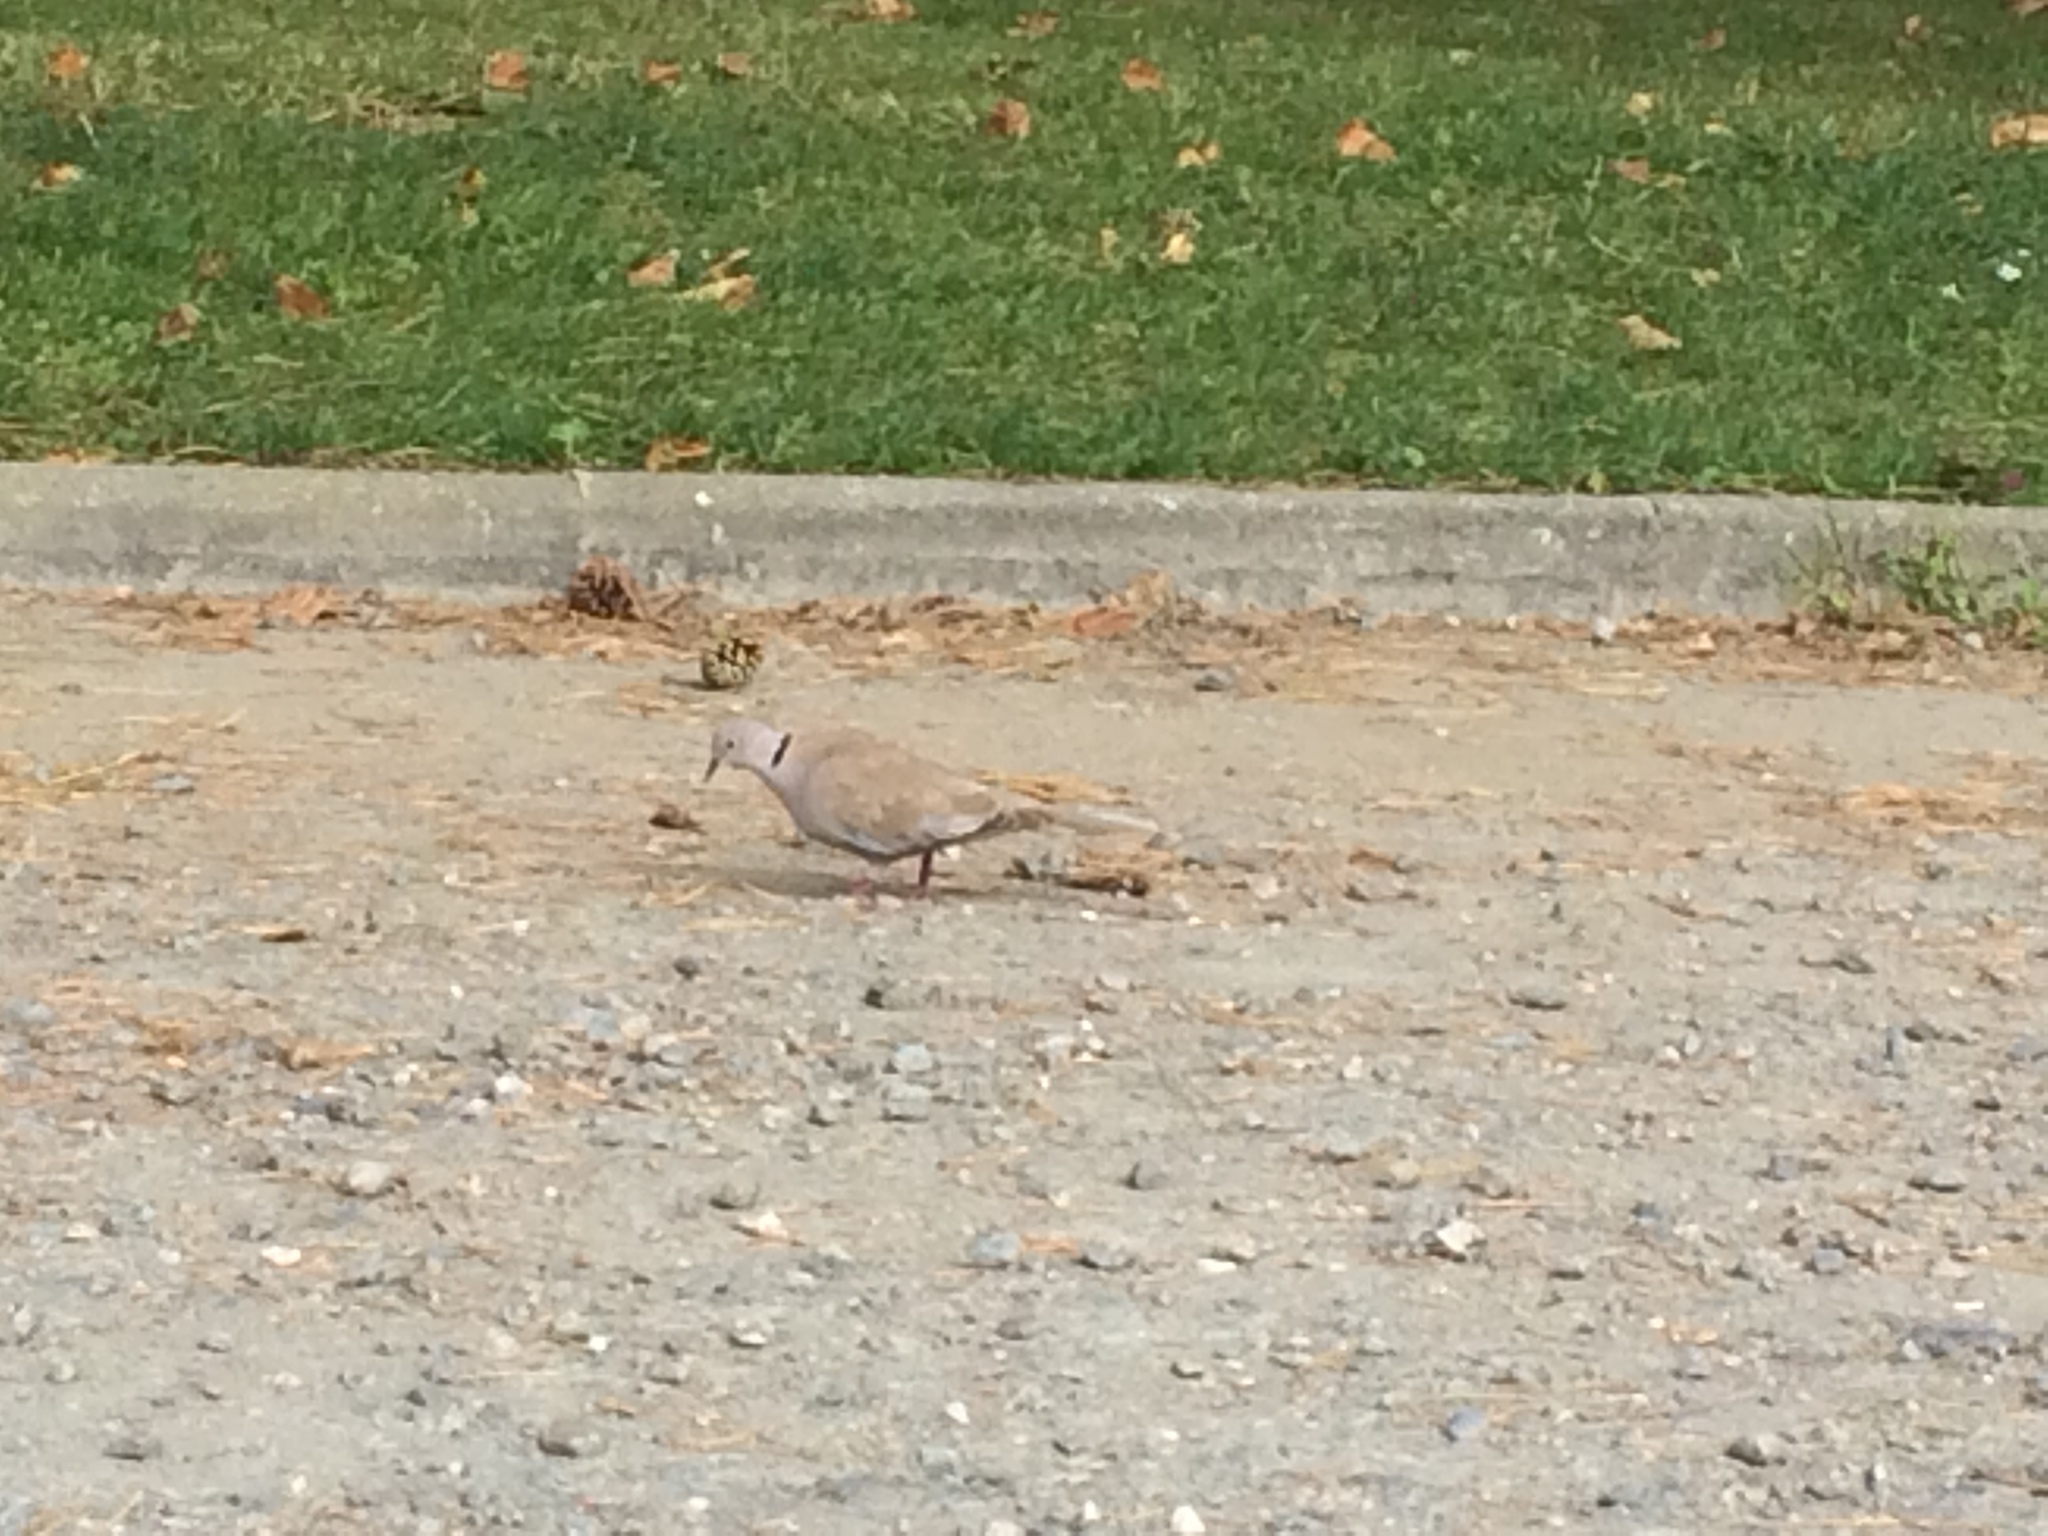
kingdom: Animalia
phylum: Chordata
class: Aves
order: Columbiformes
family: Columbidae
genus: Streptopelia
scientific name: Streptopelia decaocto
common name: Eurasian collared dove
